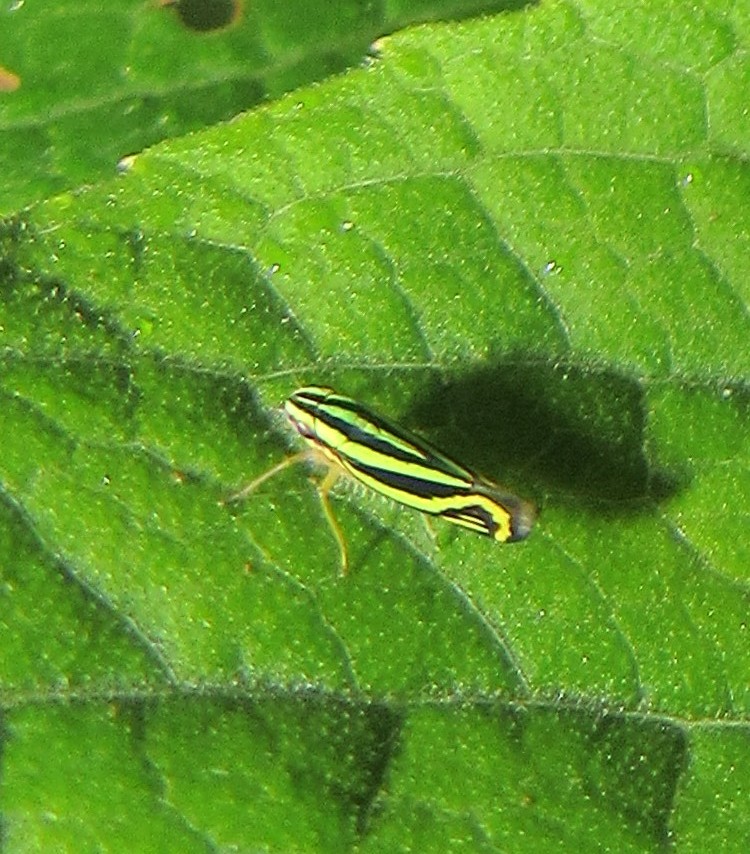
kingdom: Animalia
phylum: Arthropoda
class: Insecta
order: Hemiptera
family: Cicadellidae
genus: Sibovia
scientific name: Sibovia sagata
